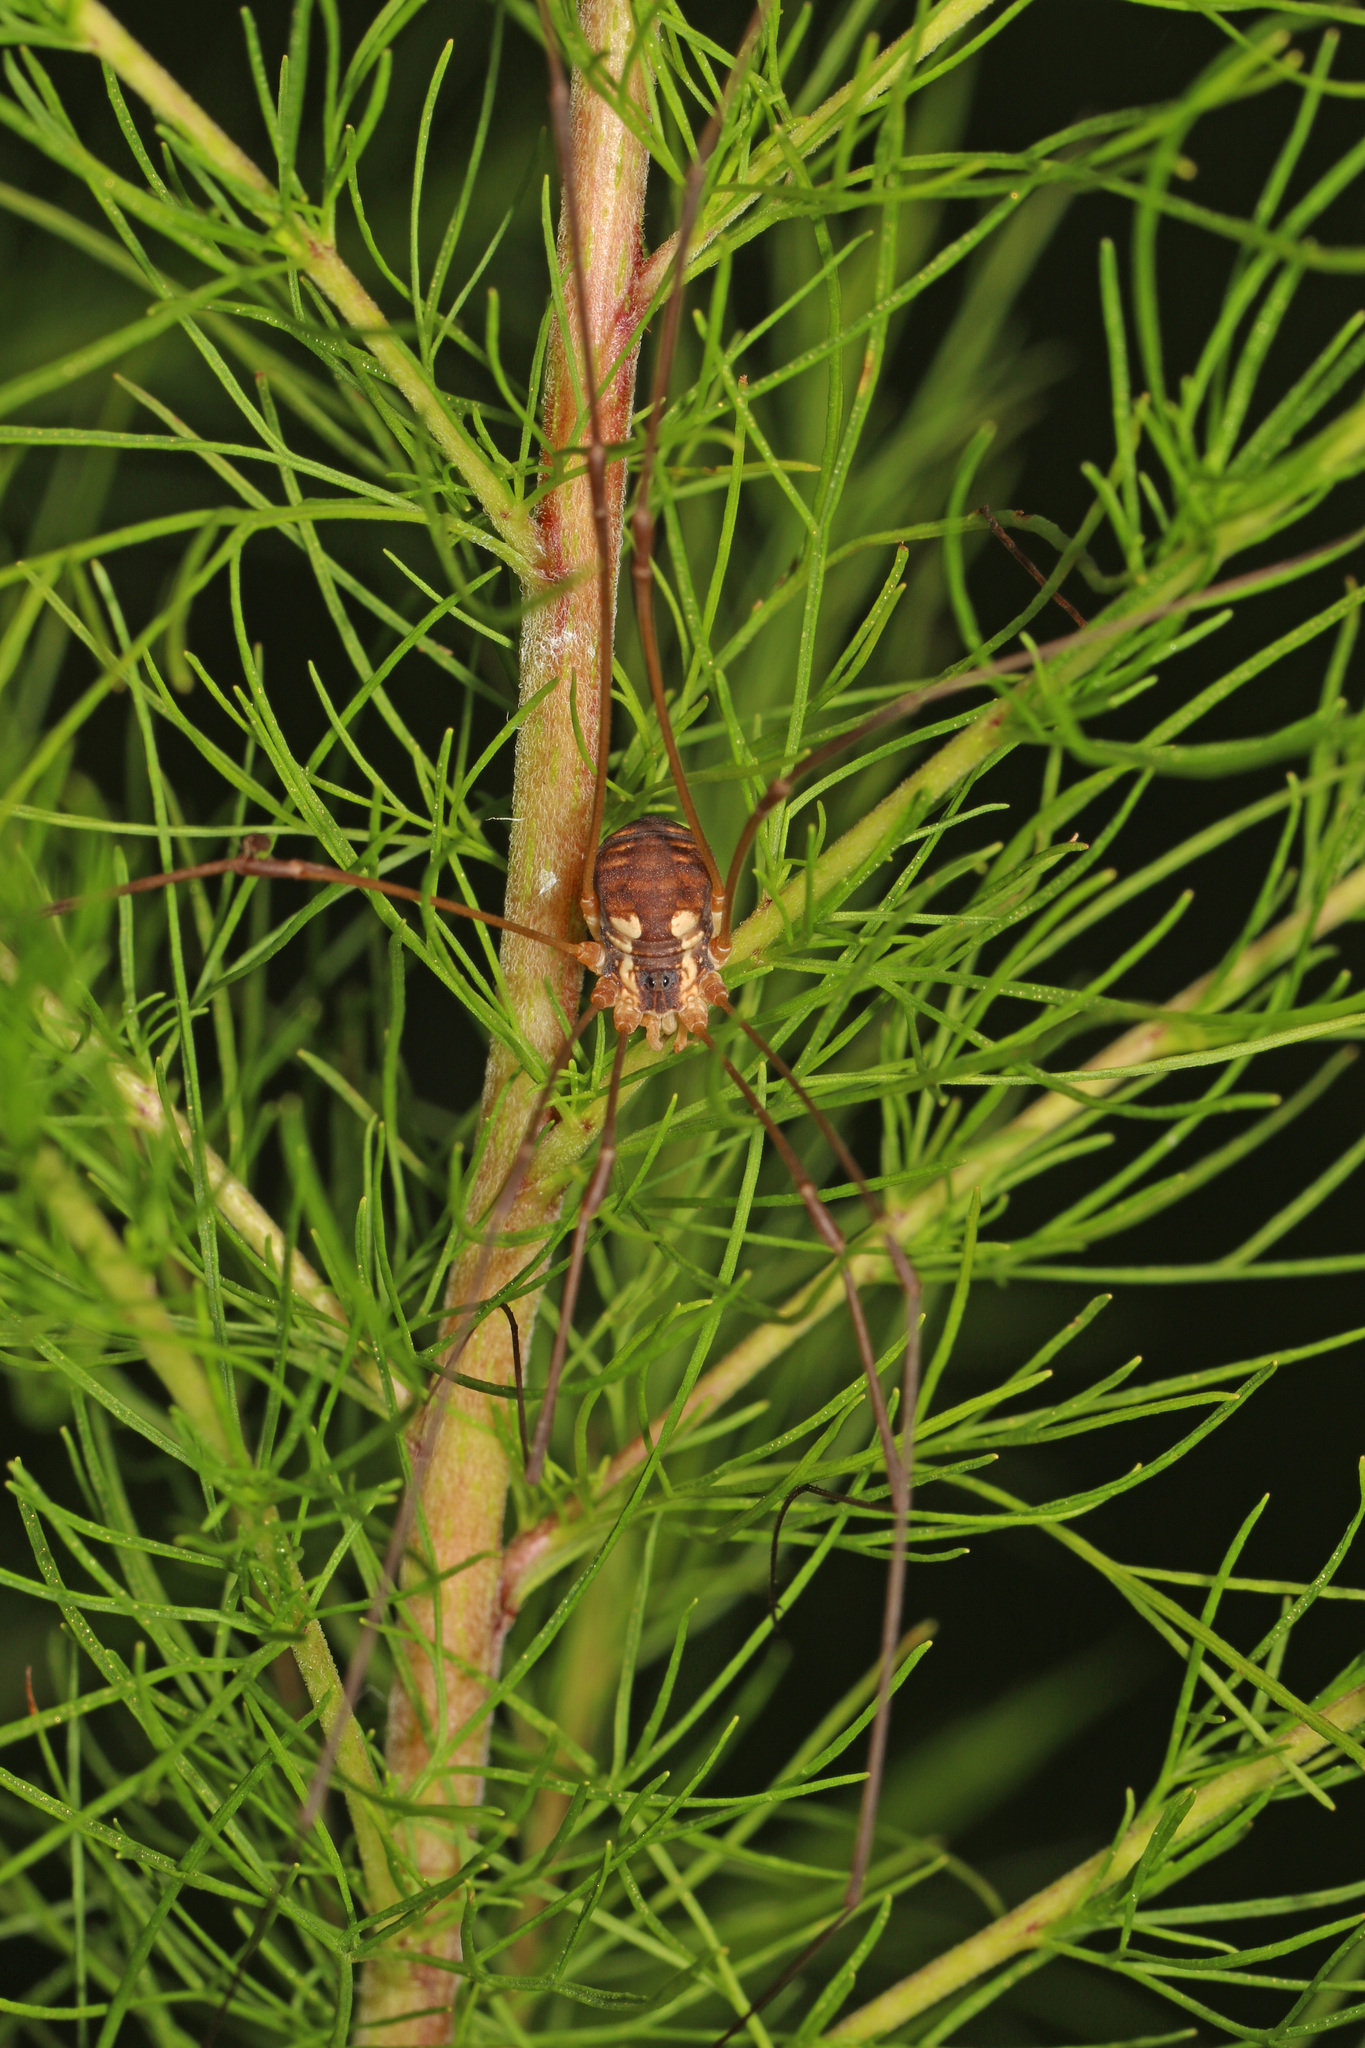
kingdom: Animalia
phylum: Arthropoda
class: Arachnida
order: Opiliones
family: Sclerosomatidae
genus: Leiobunum
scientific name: Leiobunum bimaculatum
